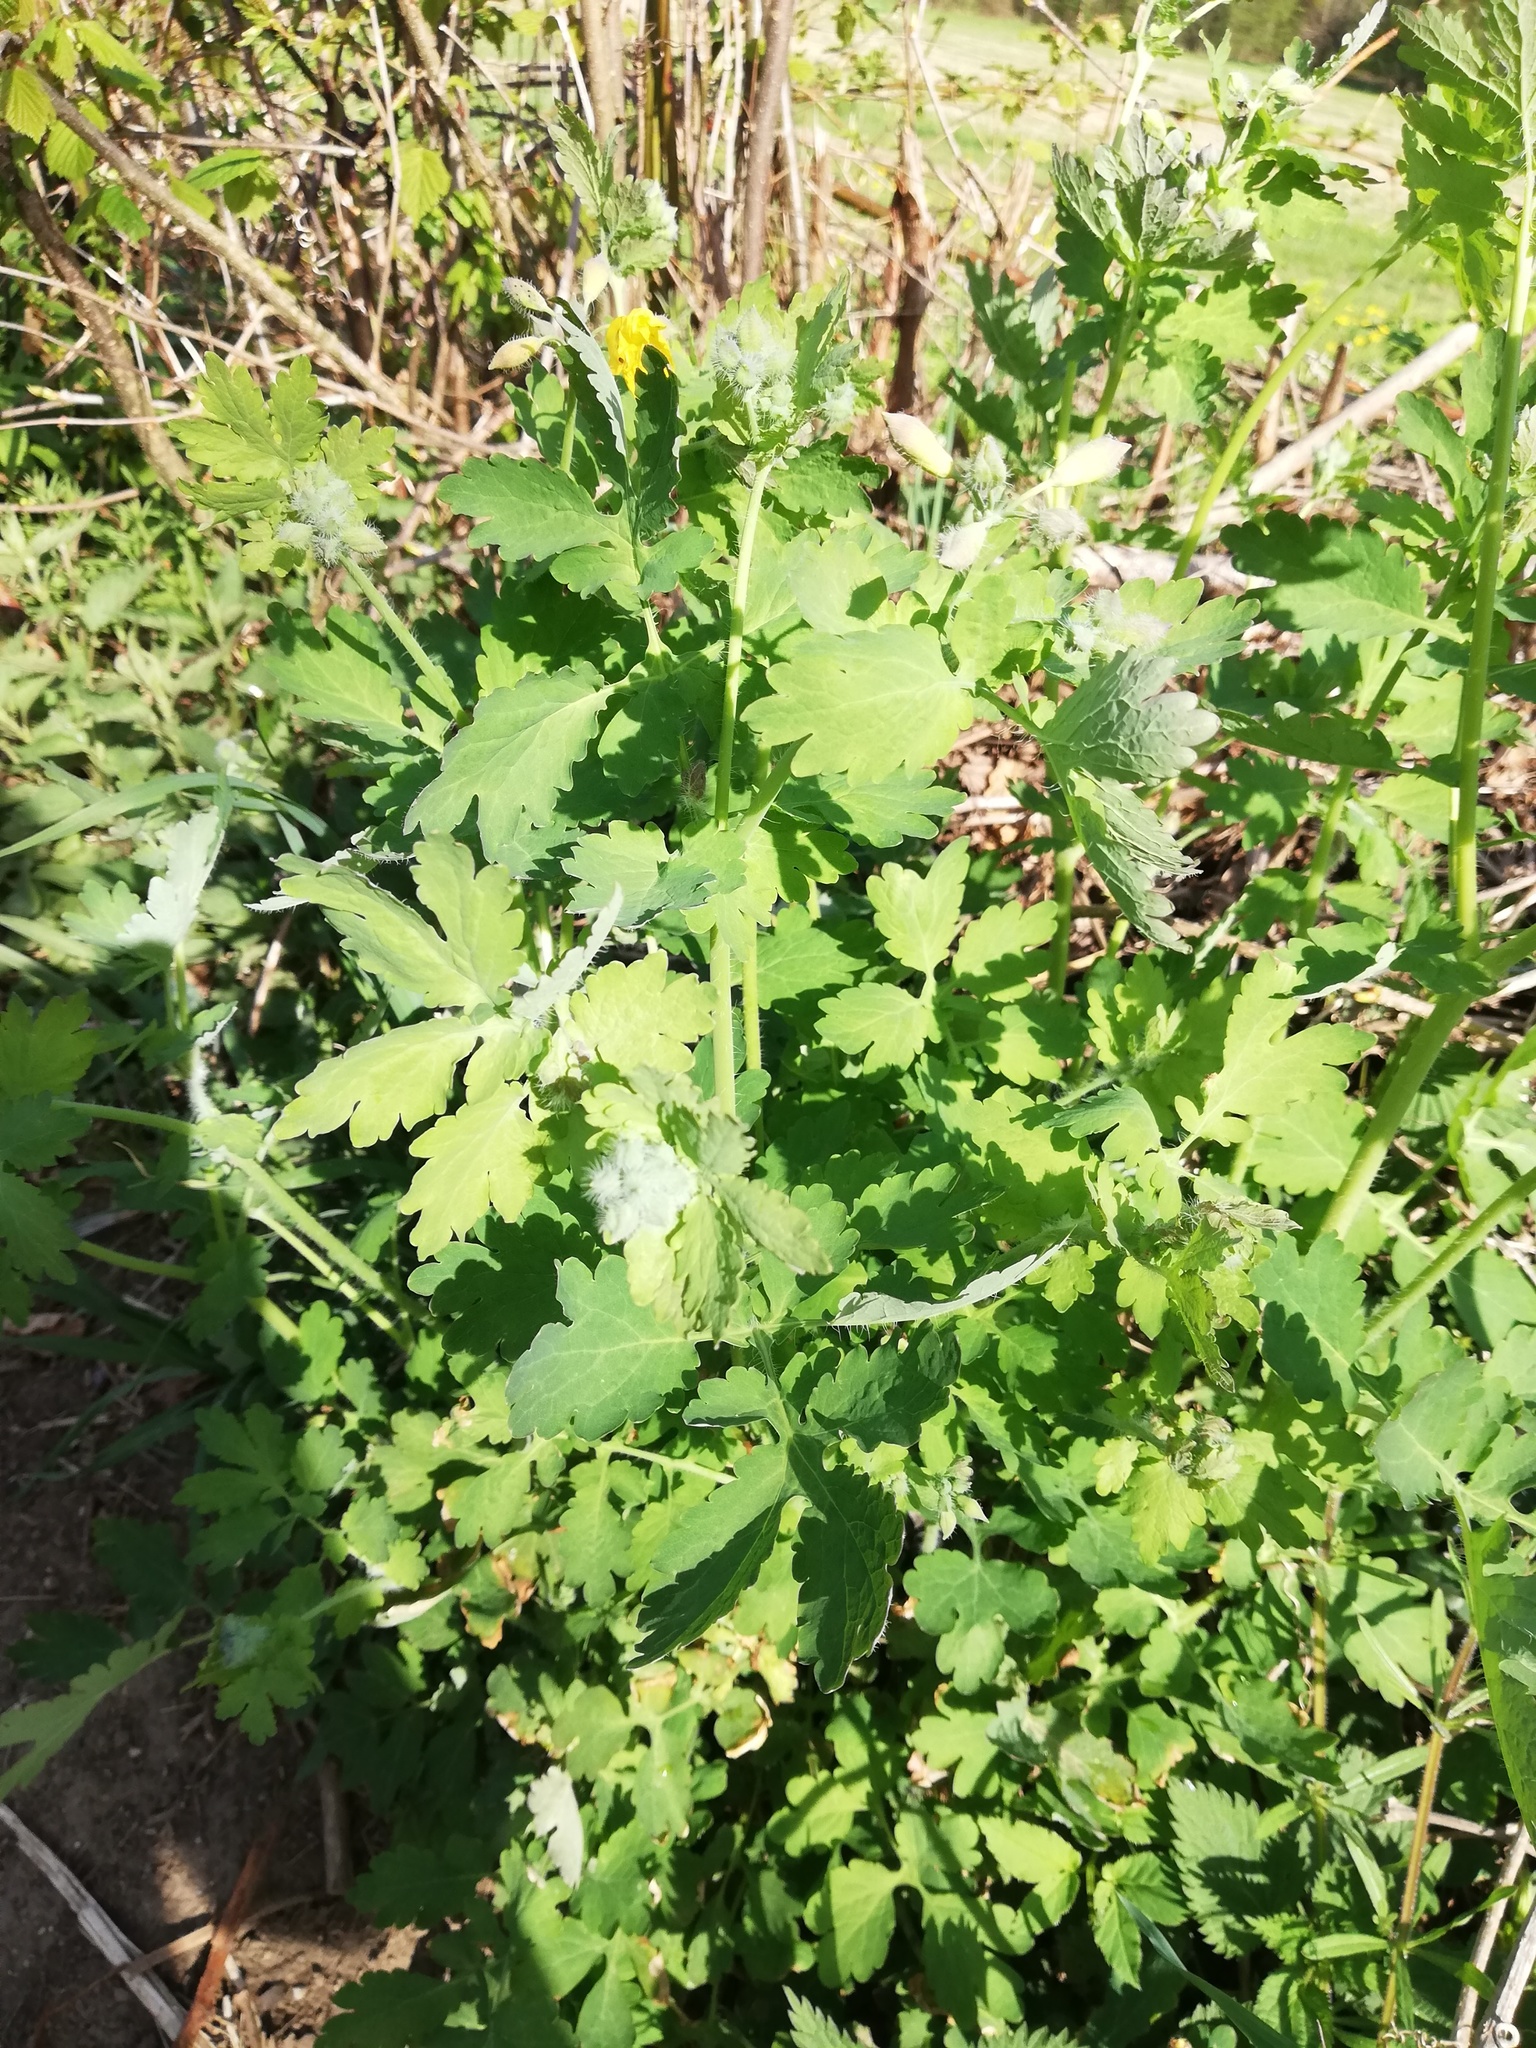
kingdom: Plantae
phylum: Tracheophyta
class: Magnoliopsida
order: Ranunculales
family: Papaveraceae
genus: Chelidonium
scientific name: Chelidonium majus
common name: Greater celandine
